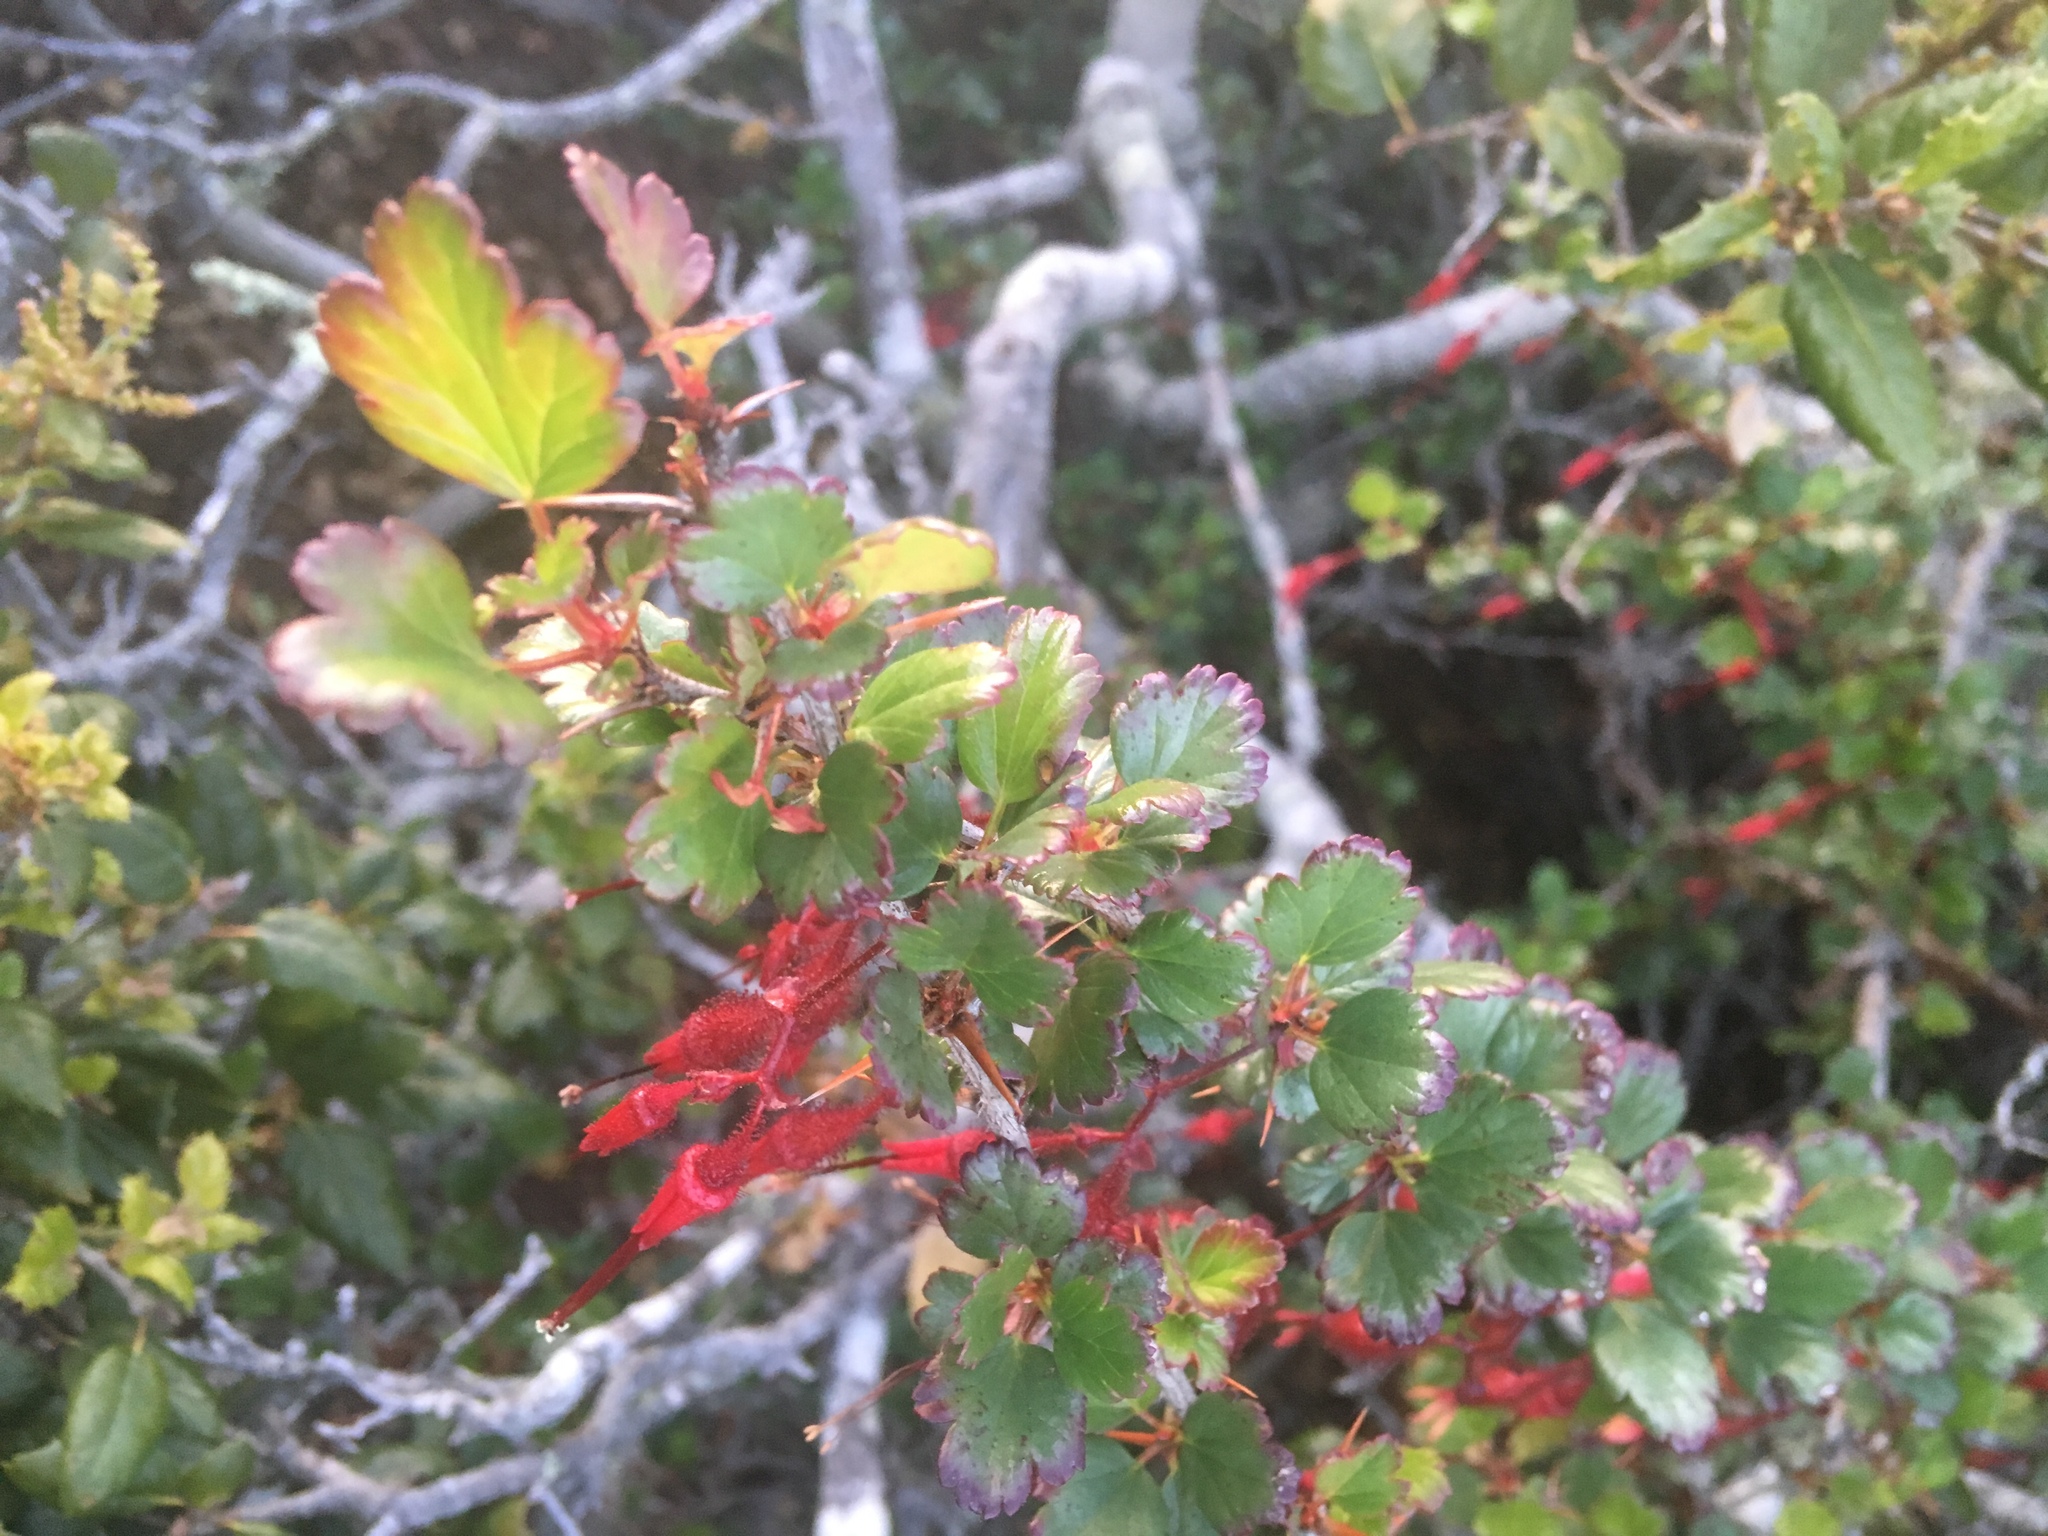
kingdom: Plantae
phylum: Tracheophyta
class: Magnoliopsida
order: Saxifragales
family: Grossulariaceae
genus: Ribes
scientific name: Ribes speciosum
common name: Fuchsia-flower gooseberry
